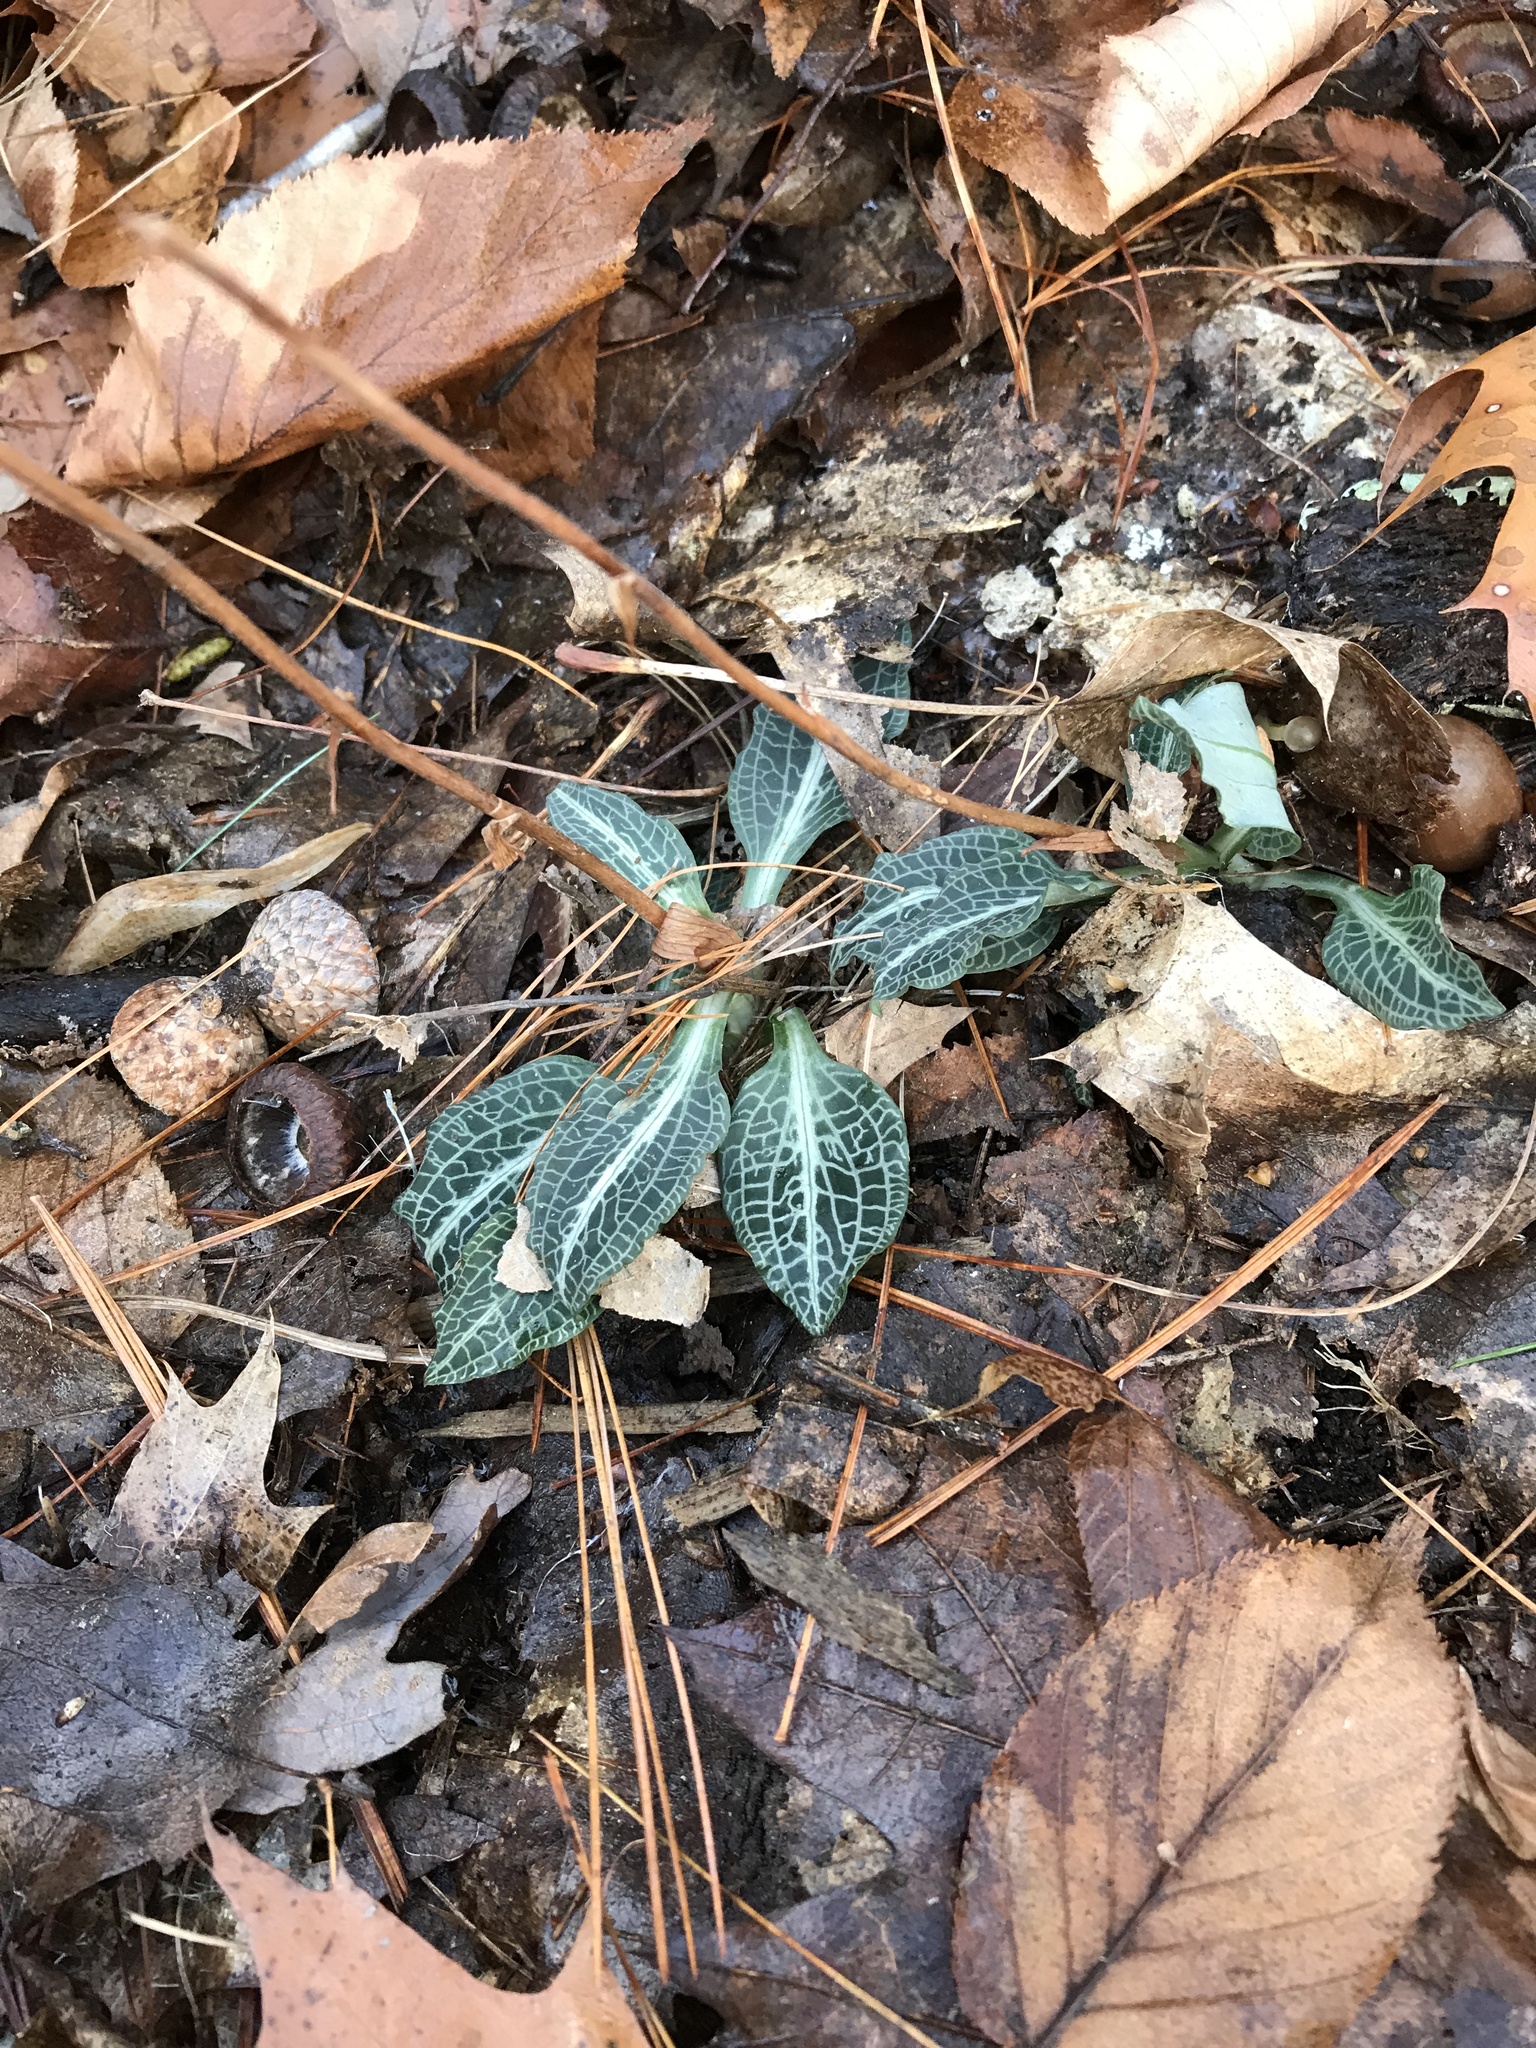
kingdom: Plantae
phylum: Tracheophyta
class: Liliopsida
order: Asparagales
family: Orchidaceae
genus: Goodyera
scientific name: Goodyera pubescens
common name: Downy rattlesnake-plantain
